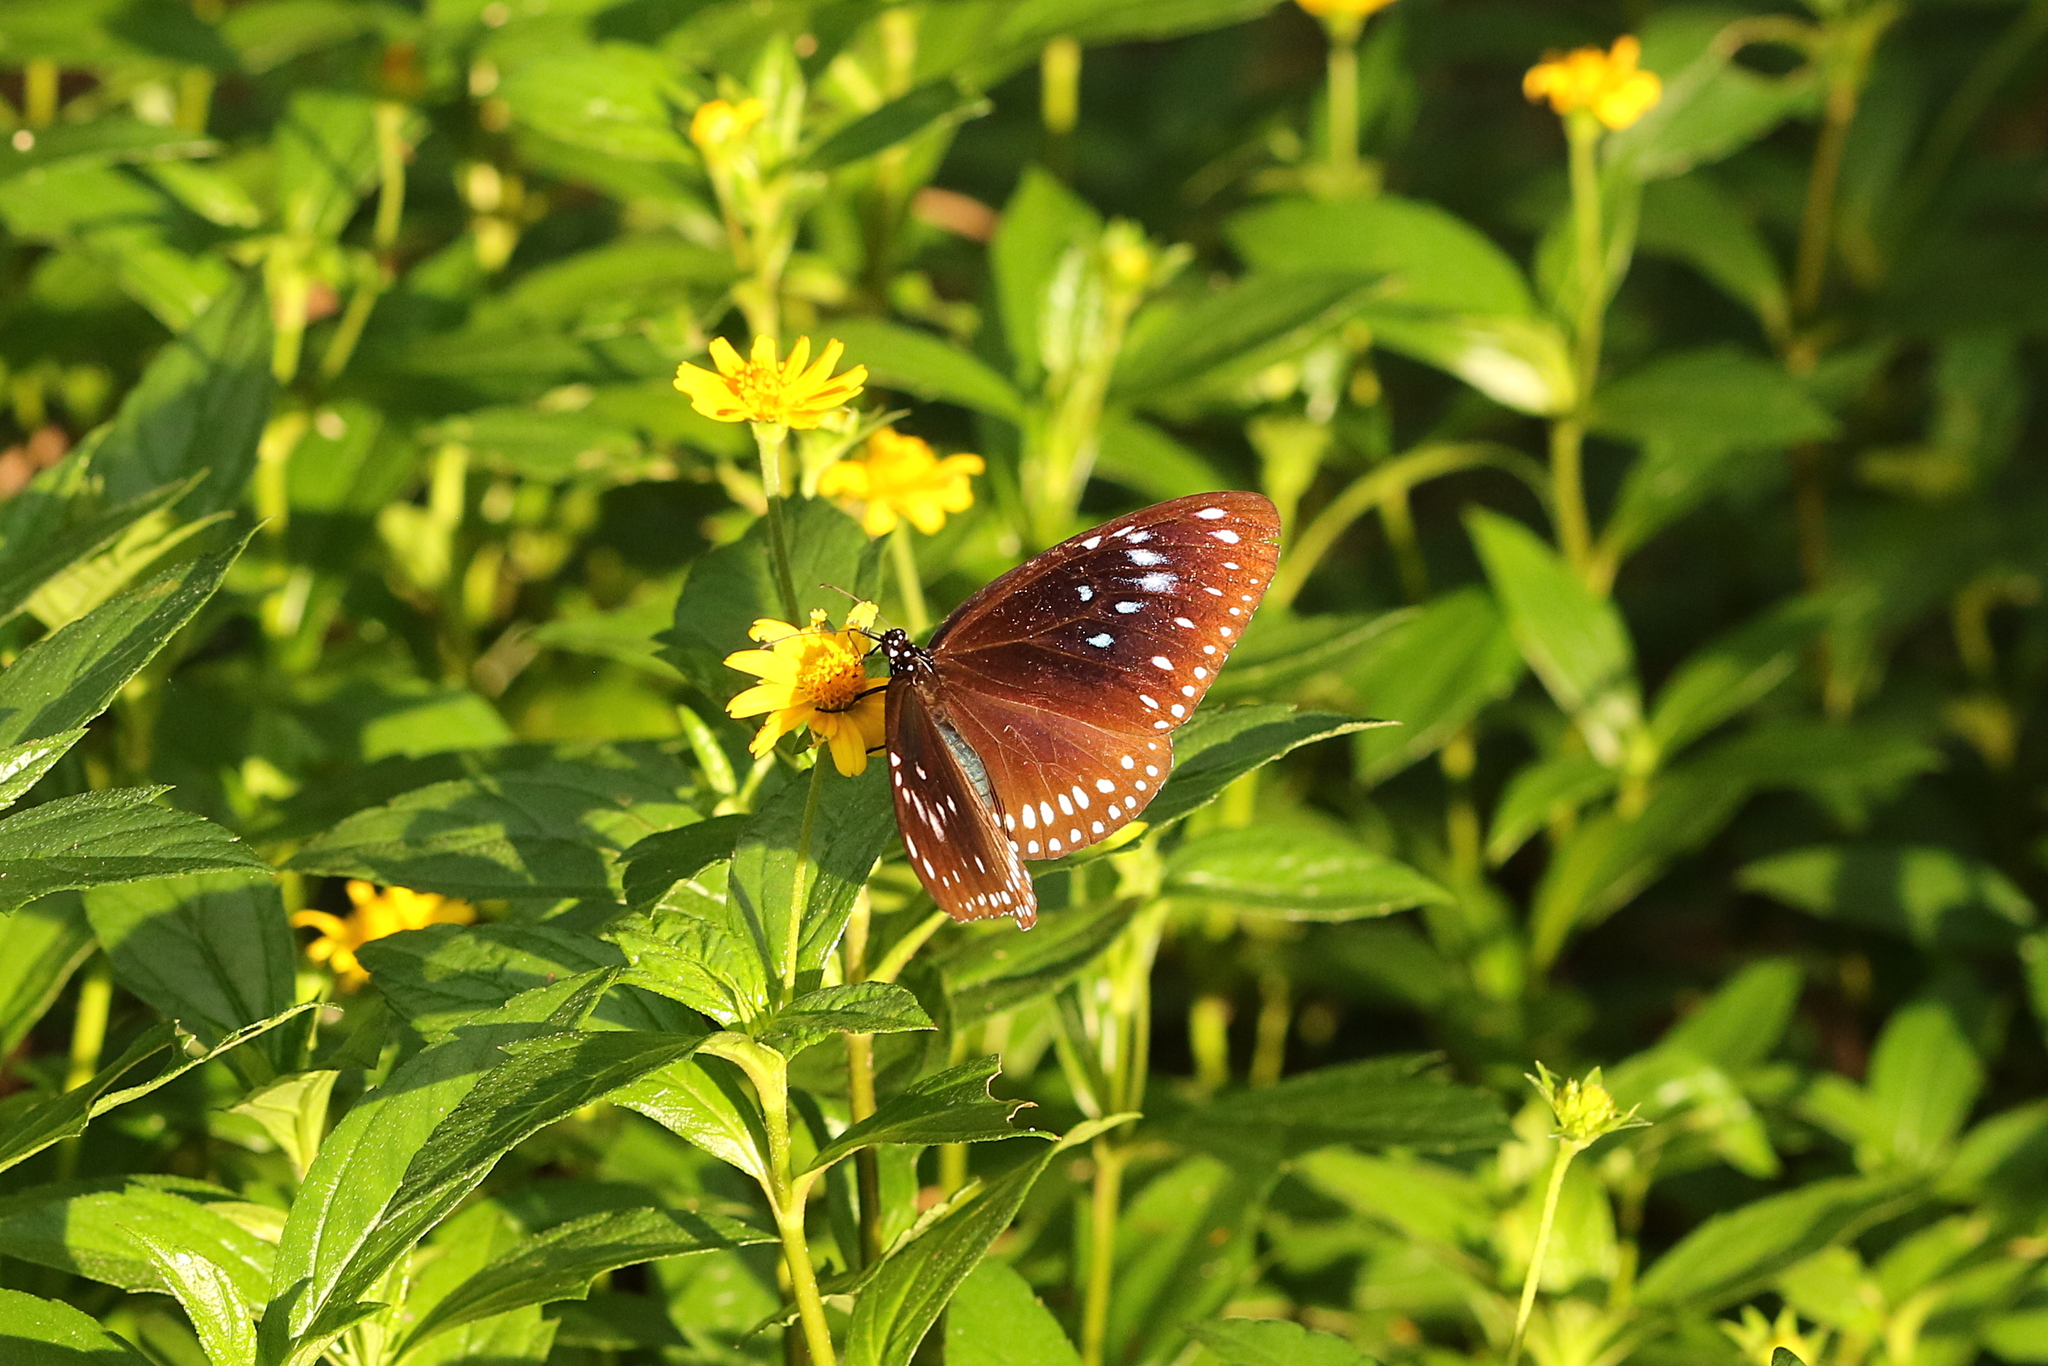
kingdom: Animalia
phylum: Arthropoda
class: Insecta
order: Lepidoptera
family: Nymphalidae
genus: Euploea
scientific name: Euploea midamus
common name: Blue-spotted crow butterfly
